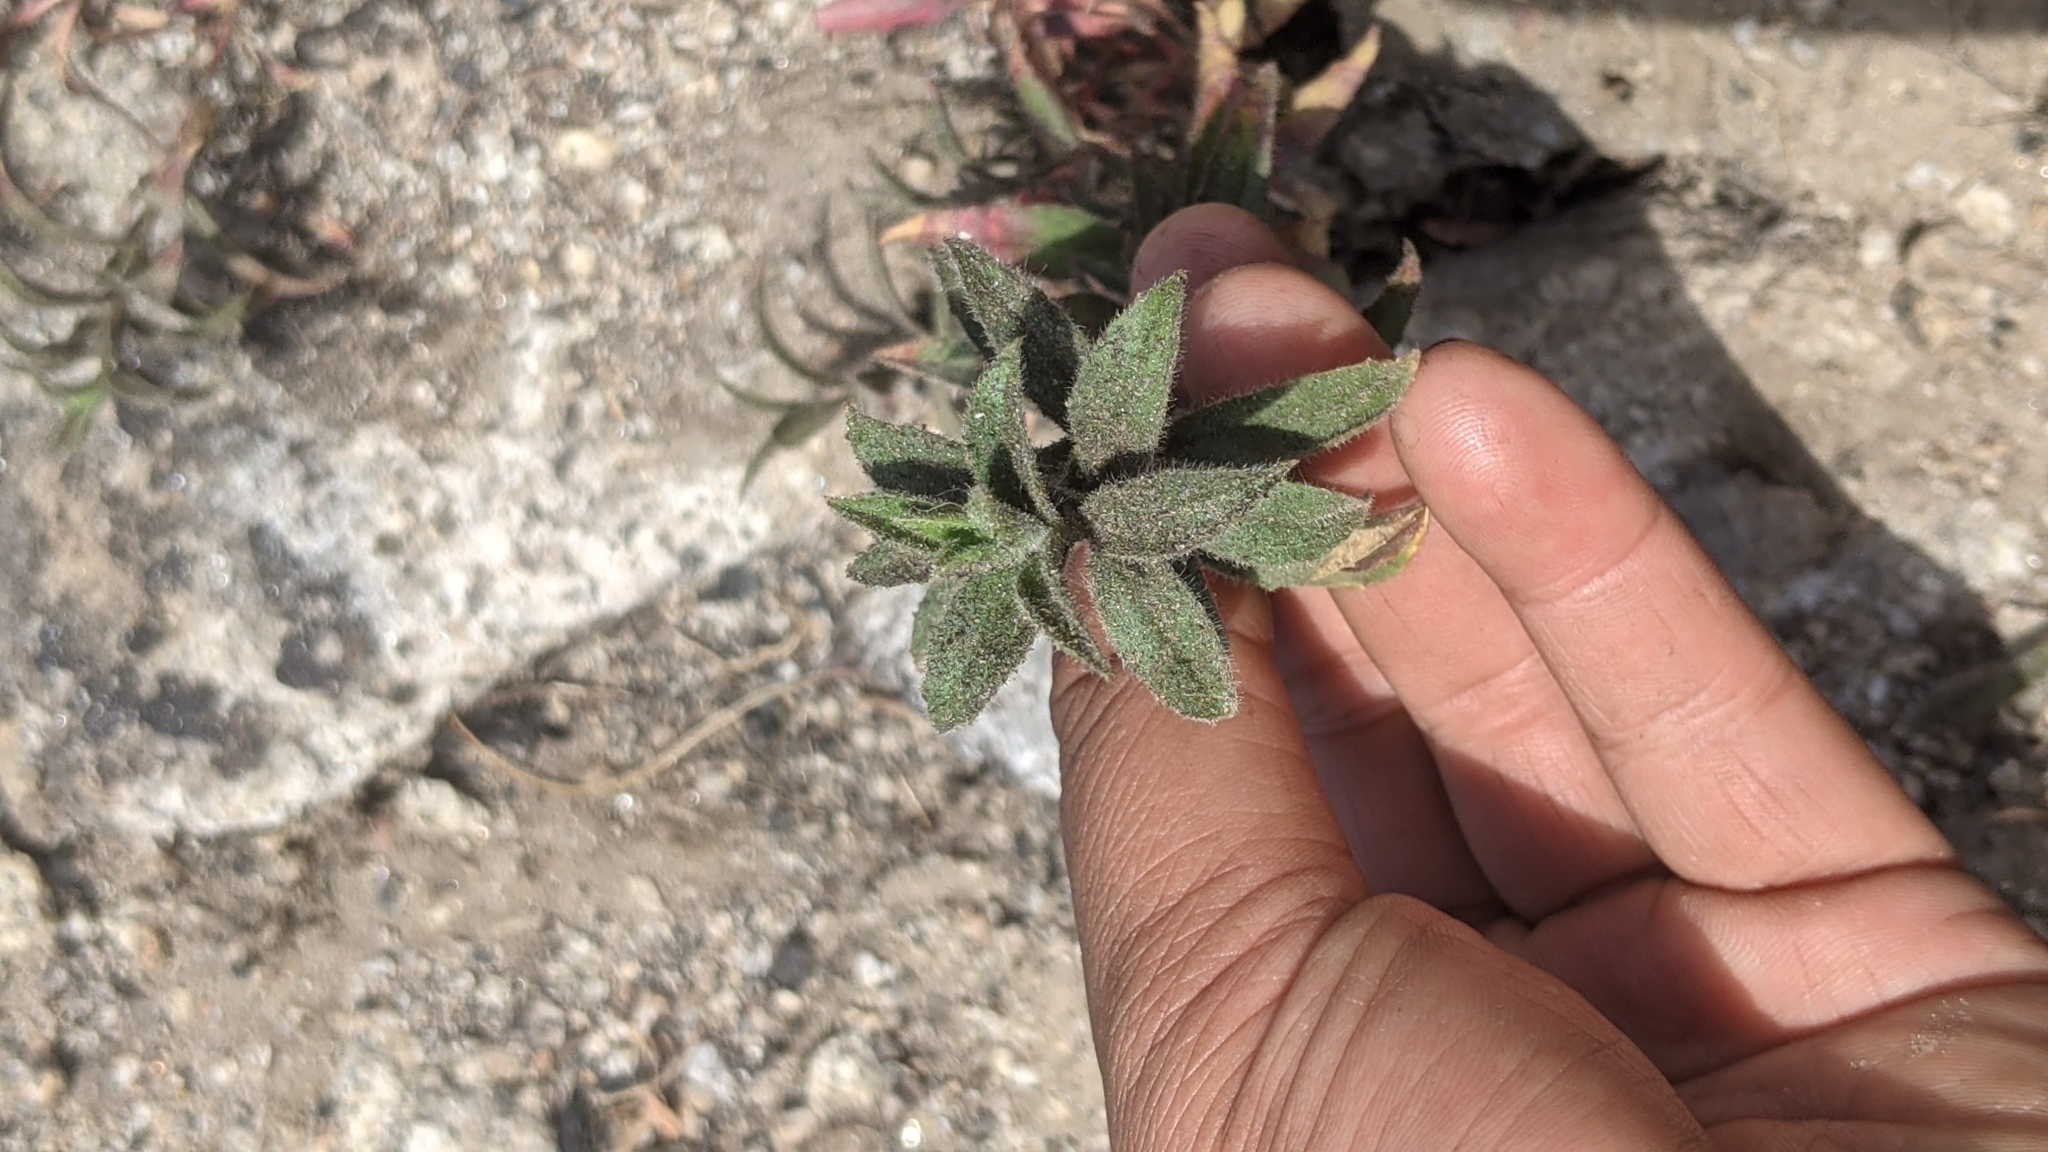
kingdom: Plantae
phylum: Tracheophyta
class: Magnoliopsida
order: Myrtales
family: Onagraceae
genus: Epilobium
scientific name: Epilobium canum
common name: California-fuchsia
